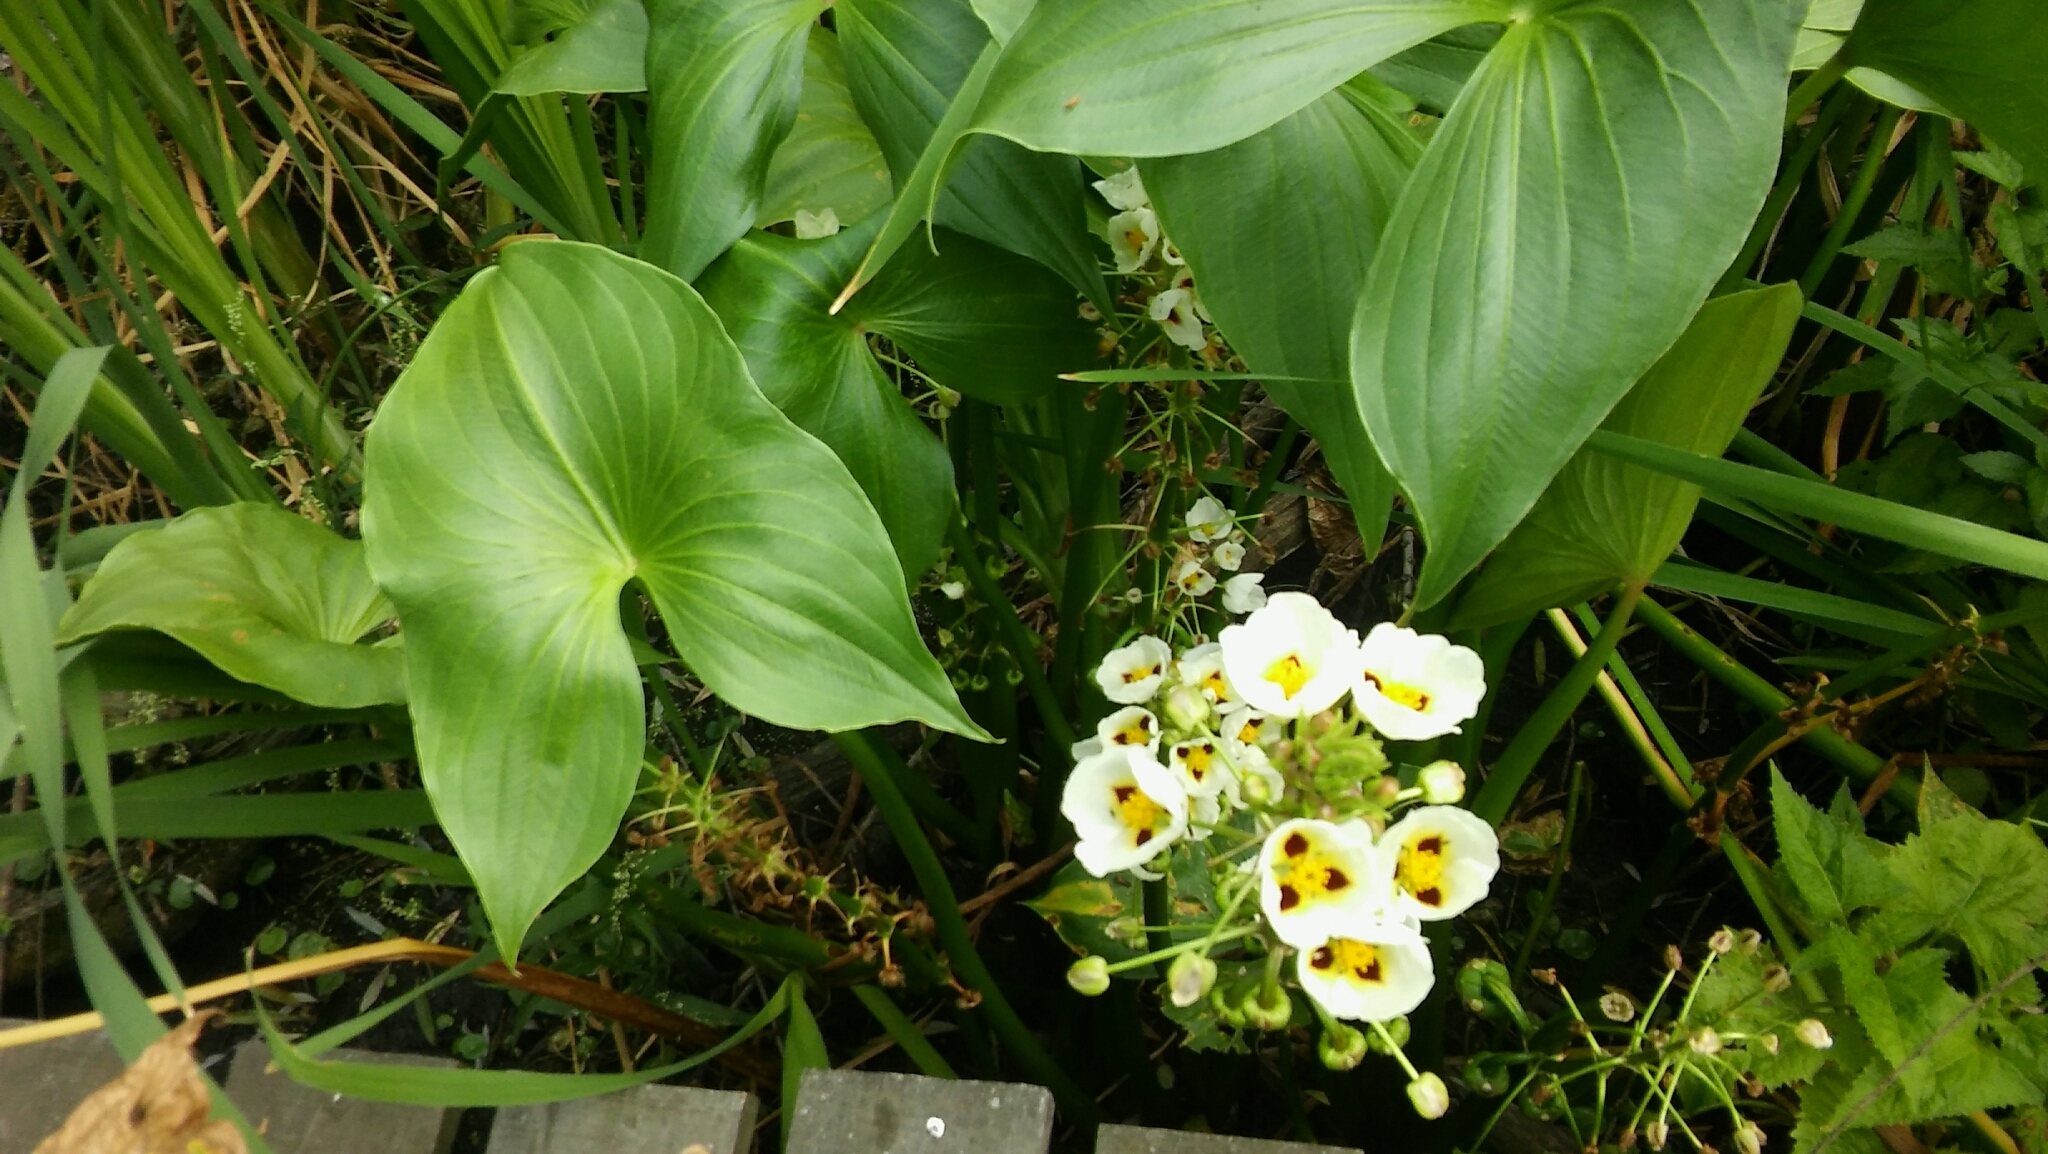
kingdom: Plantae
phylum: Tracheophyta
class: Liliopsida
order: Alismatales
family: Alismataceae
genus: Sagittaria
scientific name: Sagittaria montevidensis
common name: Giant arrowhead
